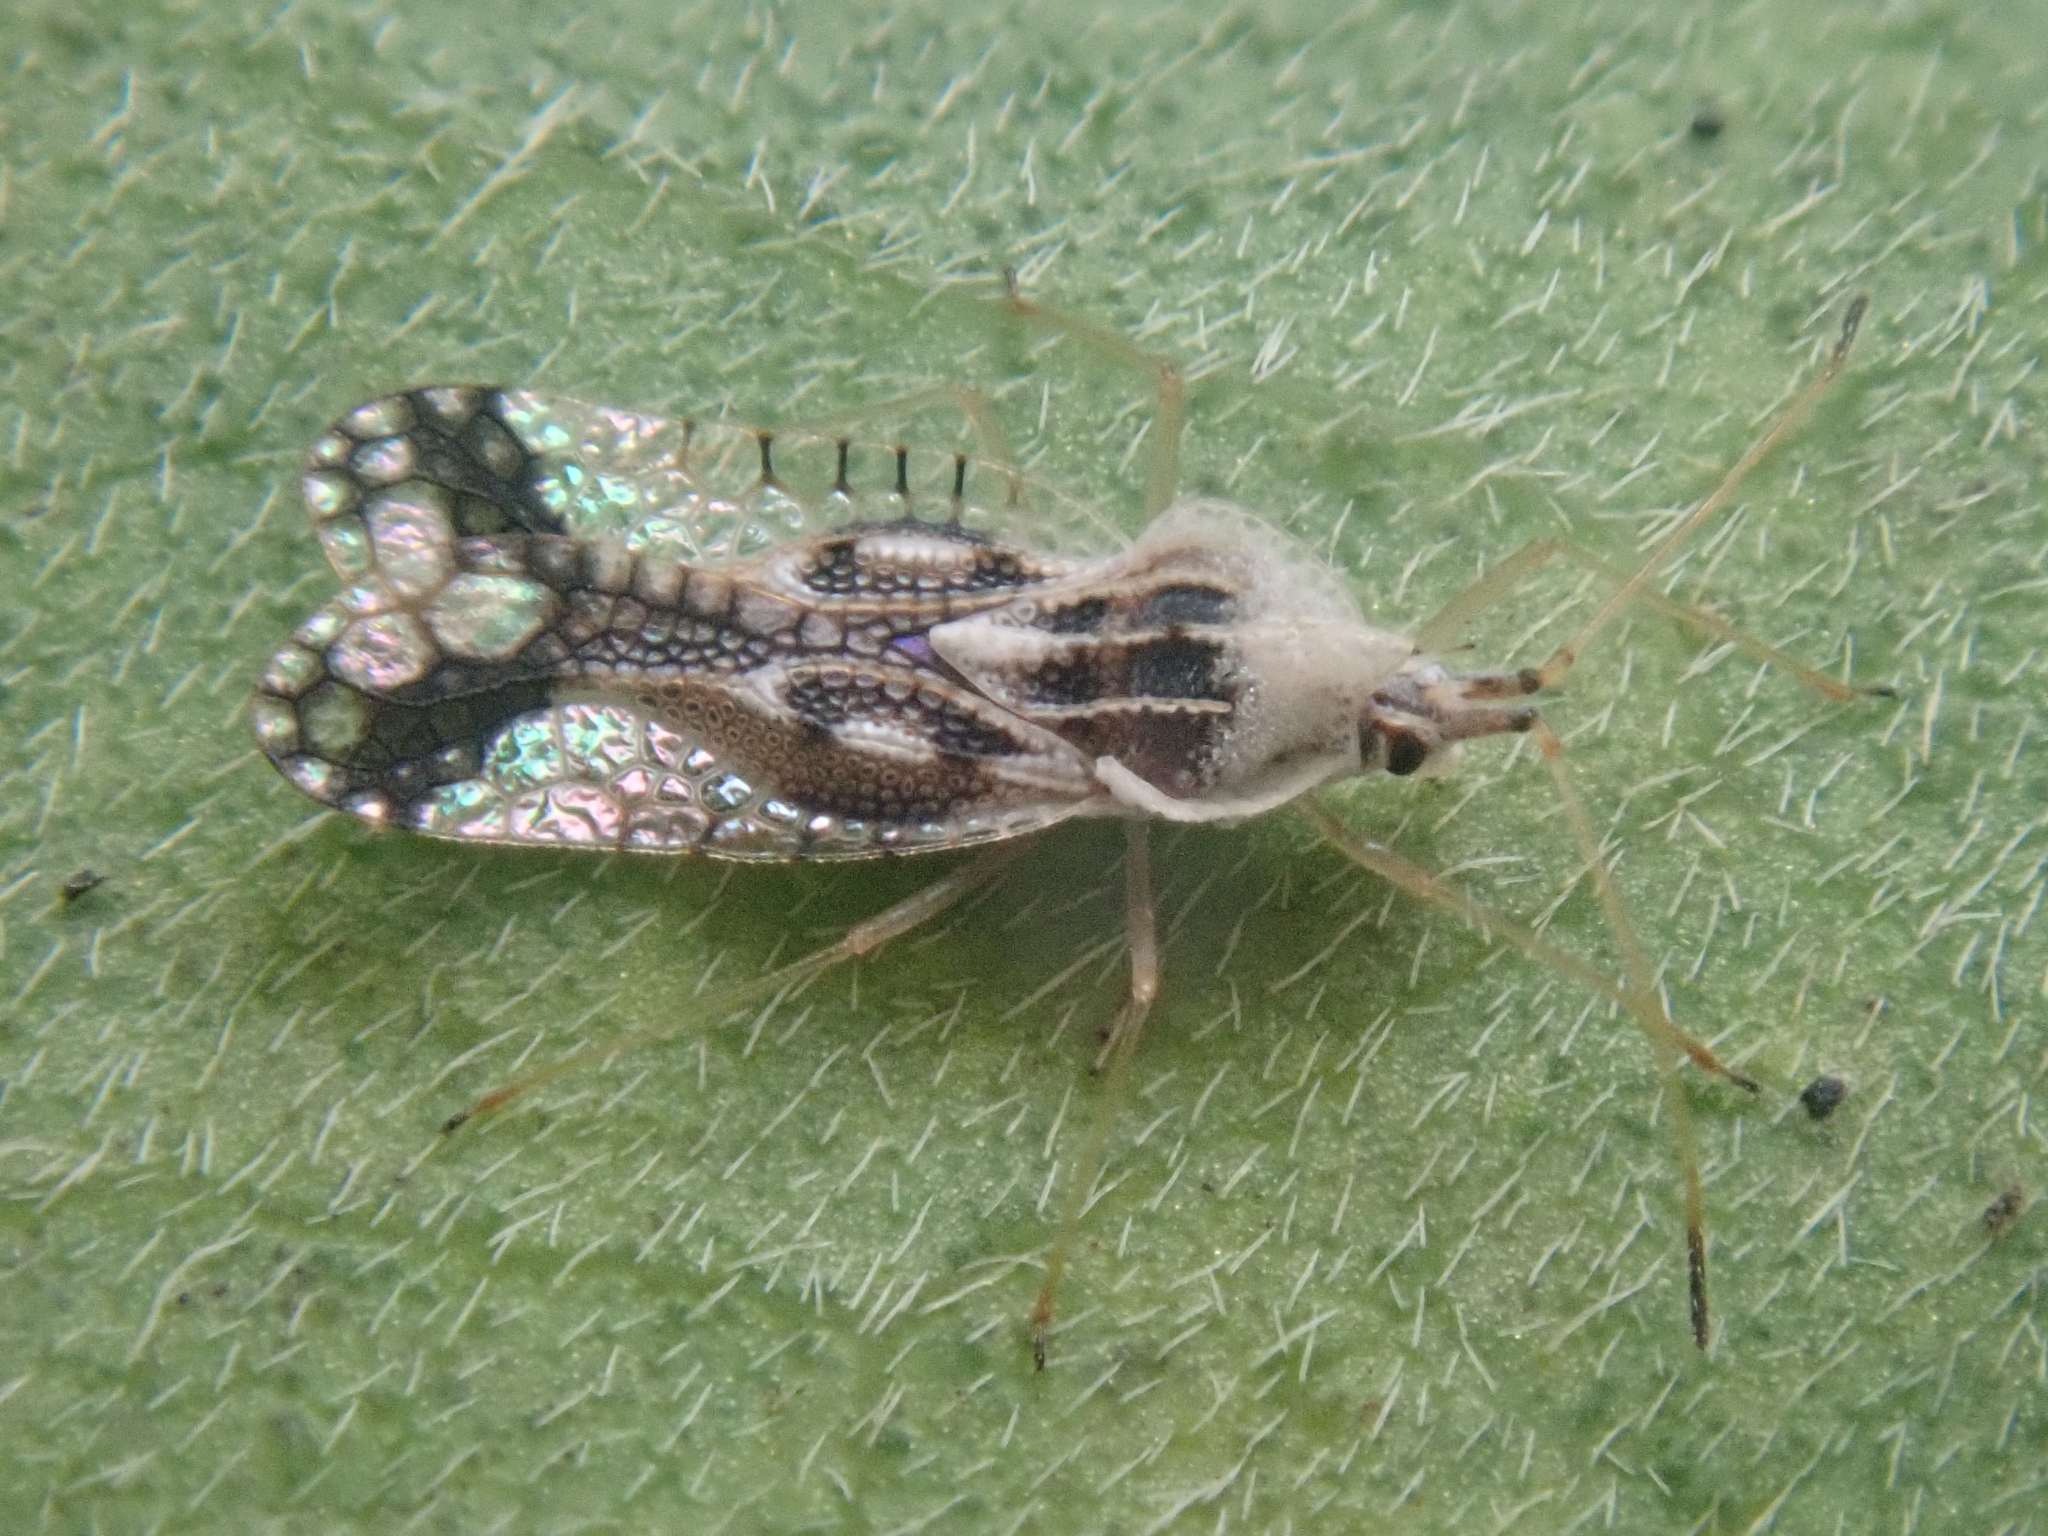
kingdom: Animalia
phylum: Arthropoda
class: Insecta
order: Hemiptera
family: Tingidae
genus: Gargaphia
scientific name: Gargaphia lunulata
